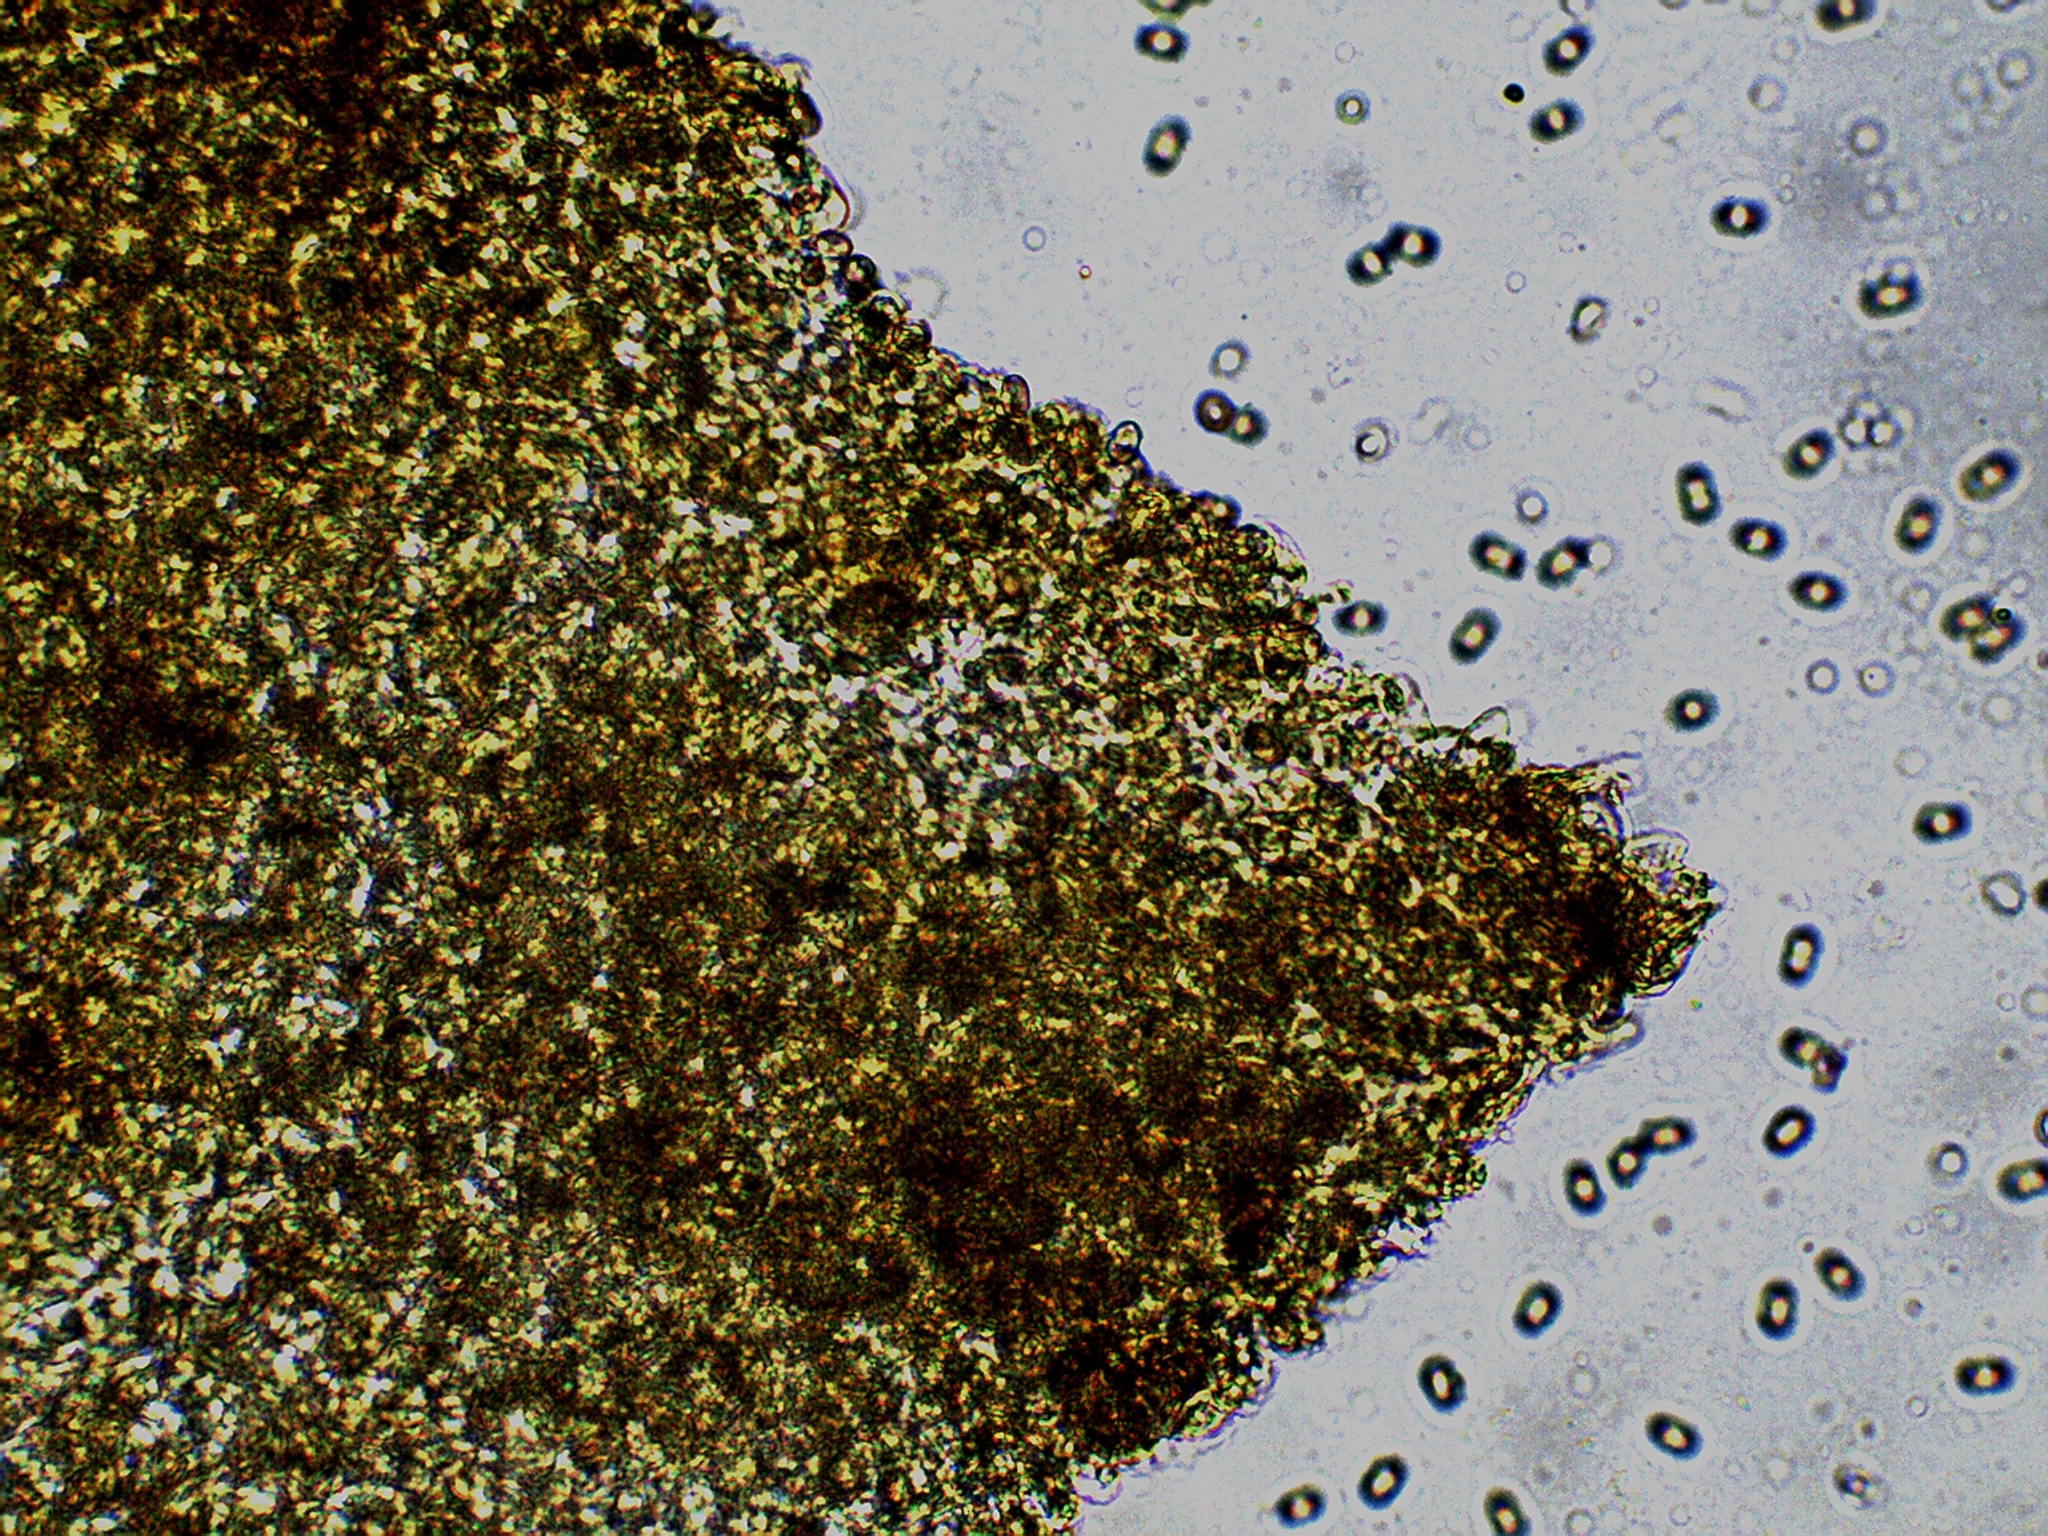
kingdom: Fungi
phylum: Basidiomycota
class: Agaricomycetes
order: Agaricales
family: Strophariaceae
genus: Pholiota
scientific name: Pholiota aurivella
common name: Golden scalycap
